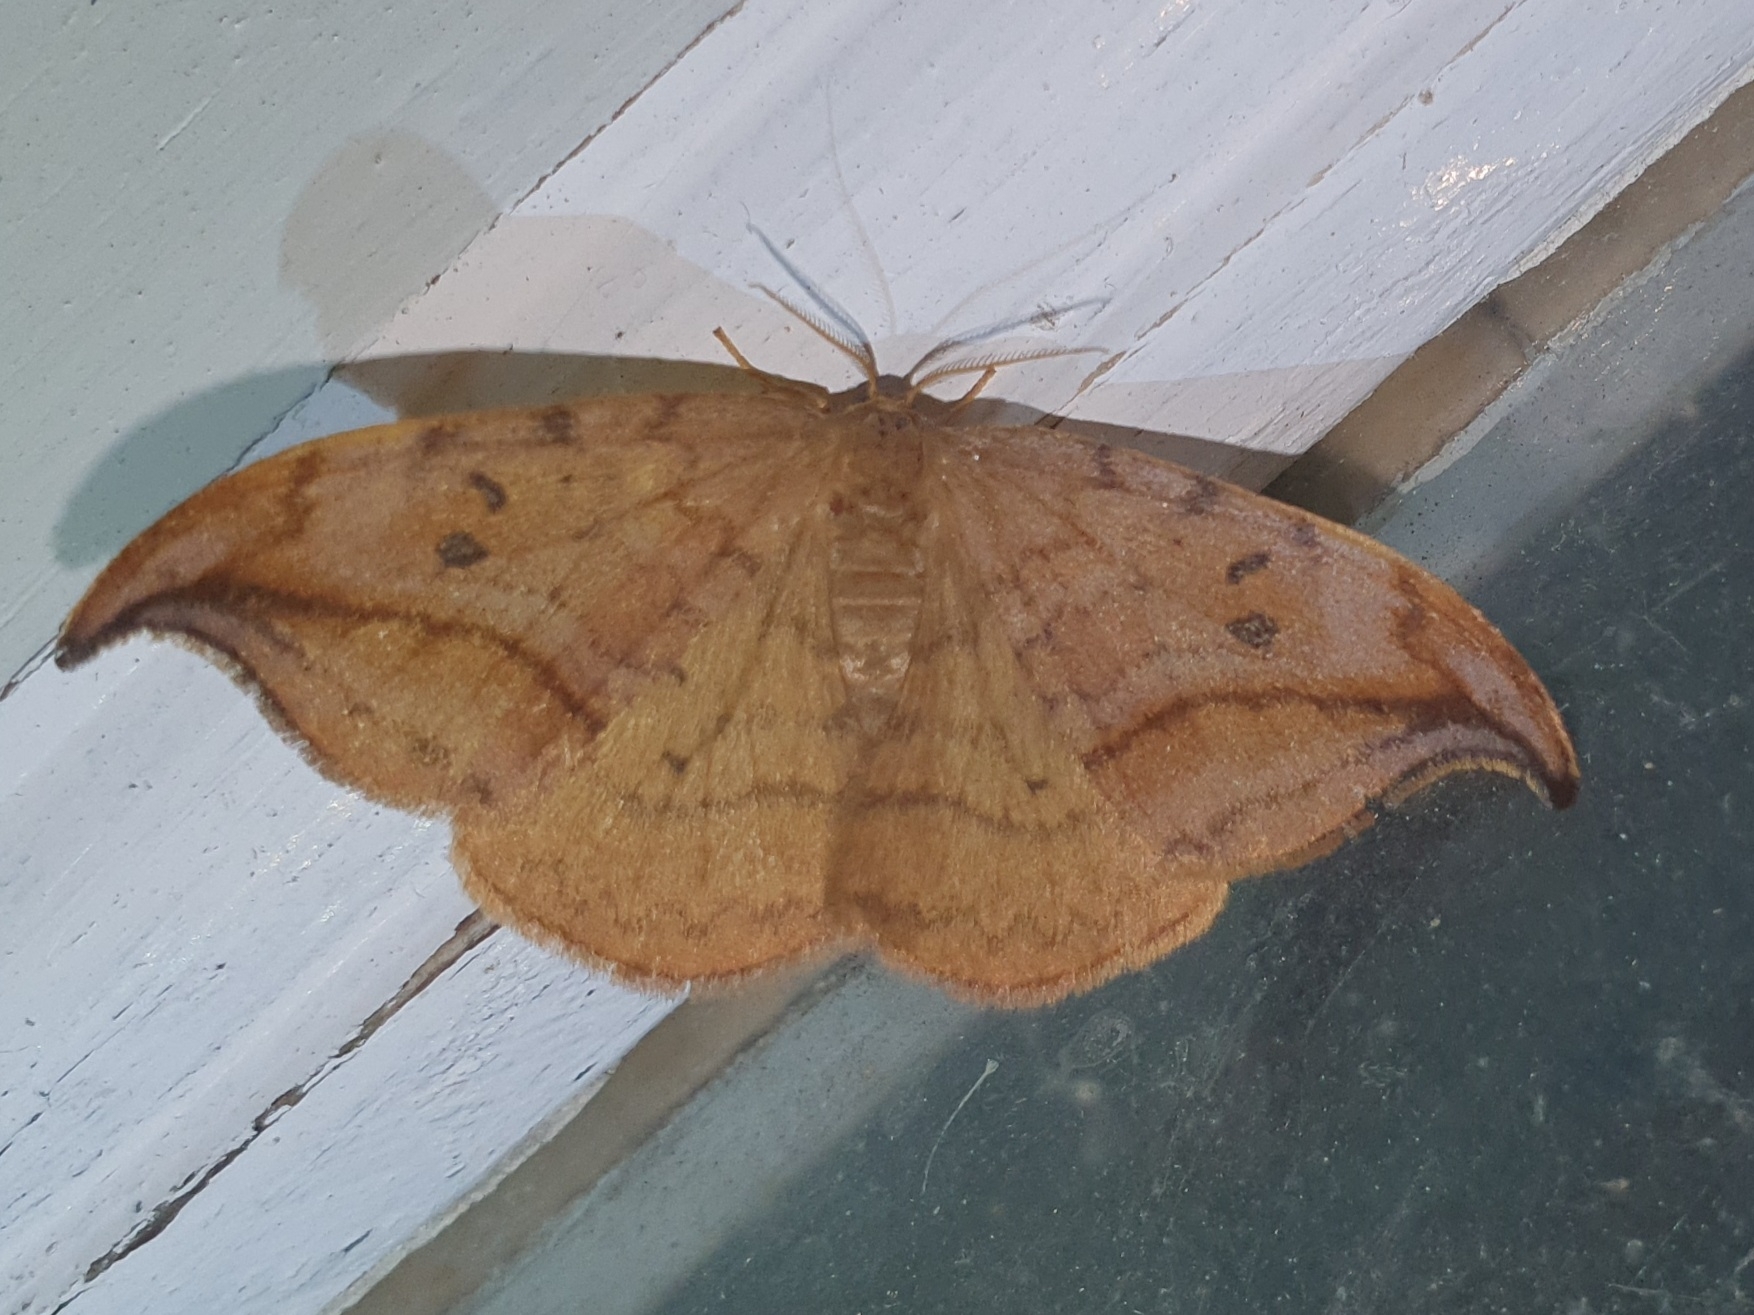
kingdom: Animalia
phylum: Arthropoda
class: Insecta
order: Lepidoptera
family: Drepanidae
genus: Drepana
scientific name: Drepana curvatula
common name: Dusky hook-tip
